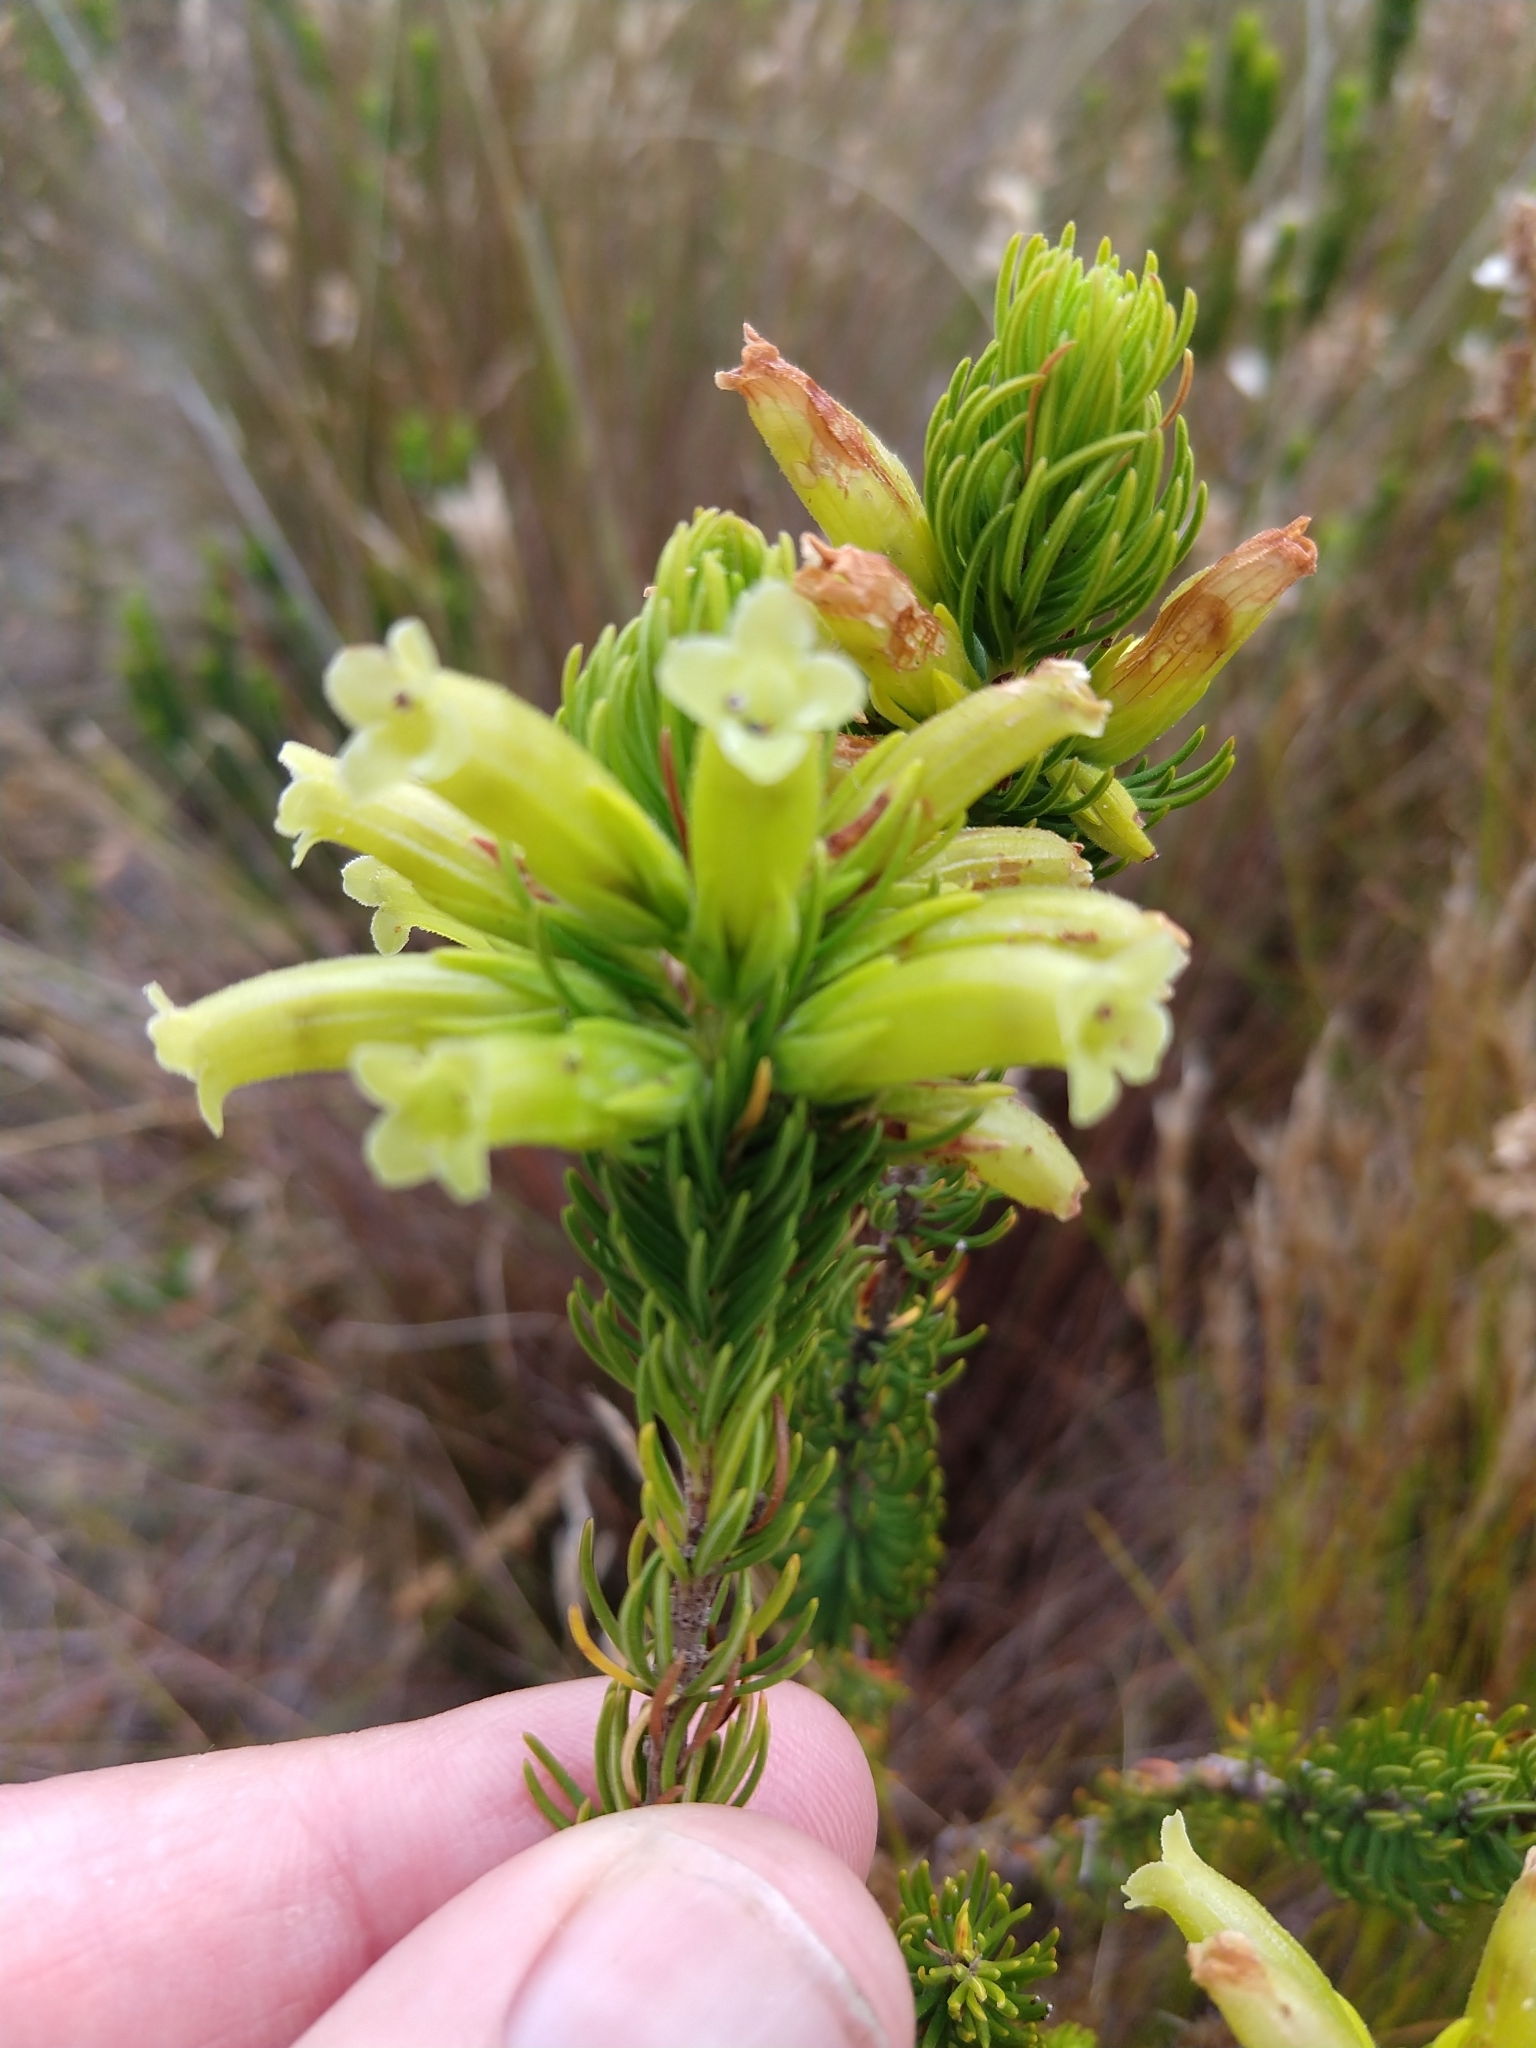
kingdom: Plantae
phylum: Tracheophyta
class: Magnoliopsida
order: Ericales
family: Ericaceae
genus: Erica
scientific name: Erica viscaria
